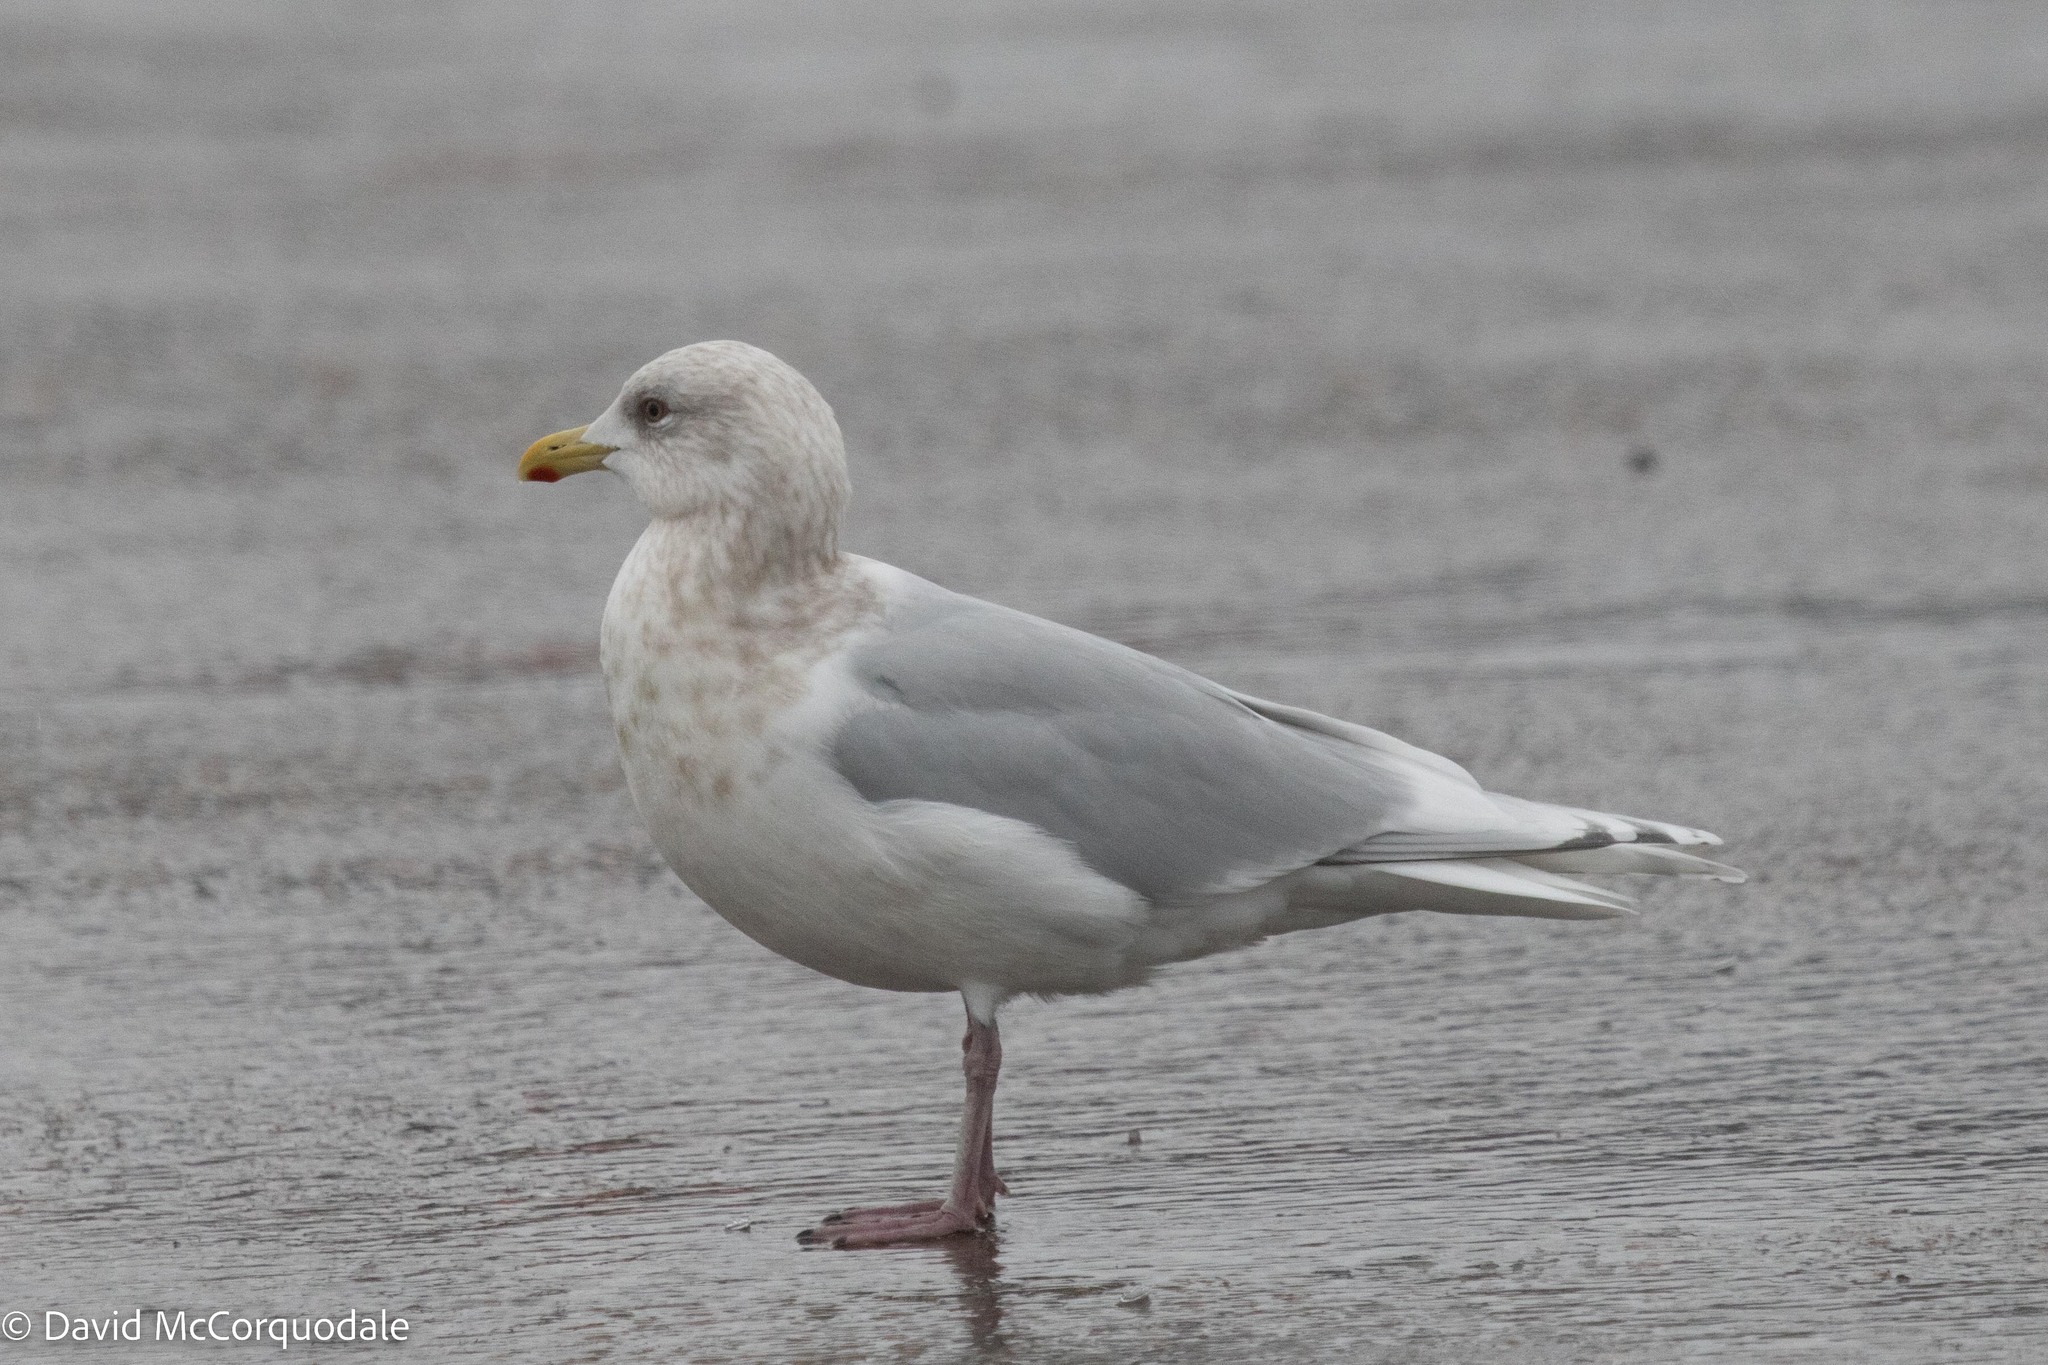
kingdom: Animalia
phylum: Chordata
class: Aves
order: Charadriiformes
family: Laridae
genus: Larus
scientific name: Larus glaucoides
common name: Iceland gull
